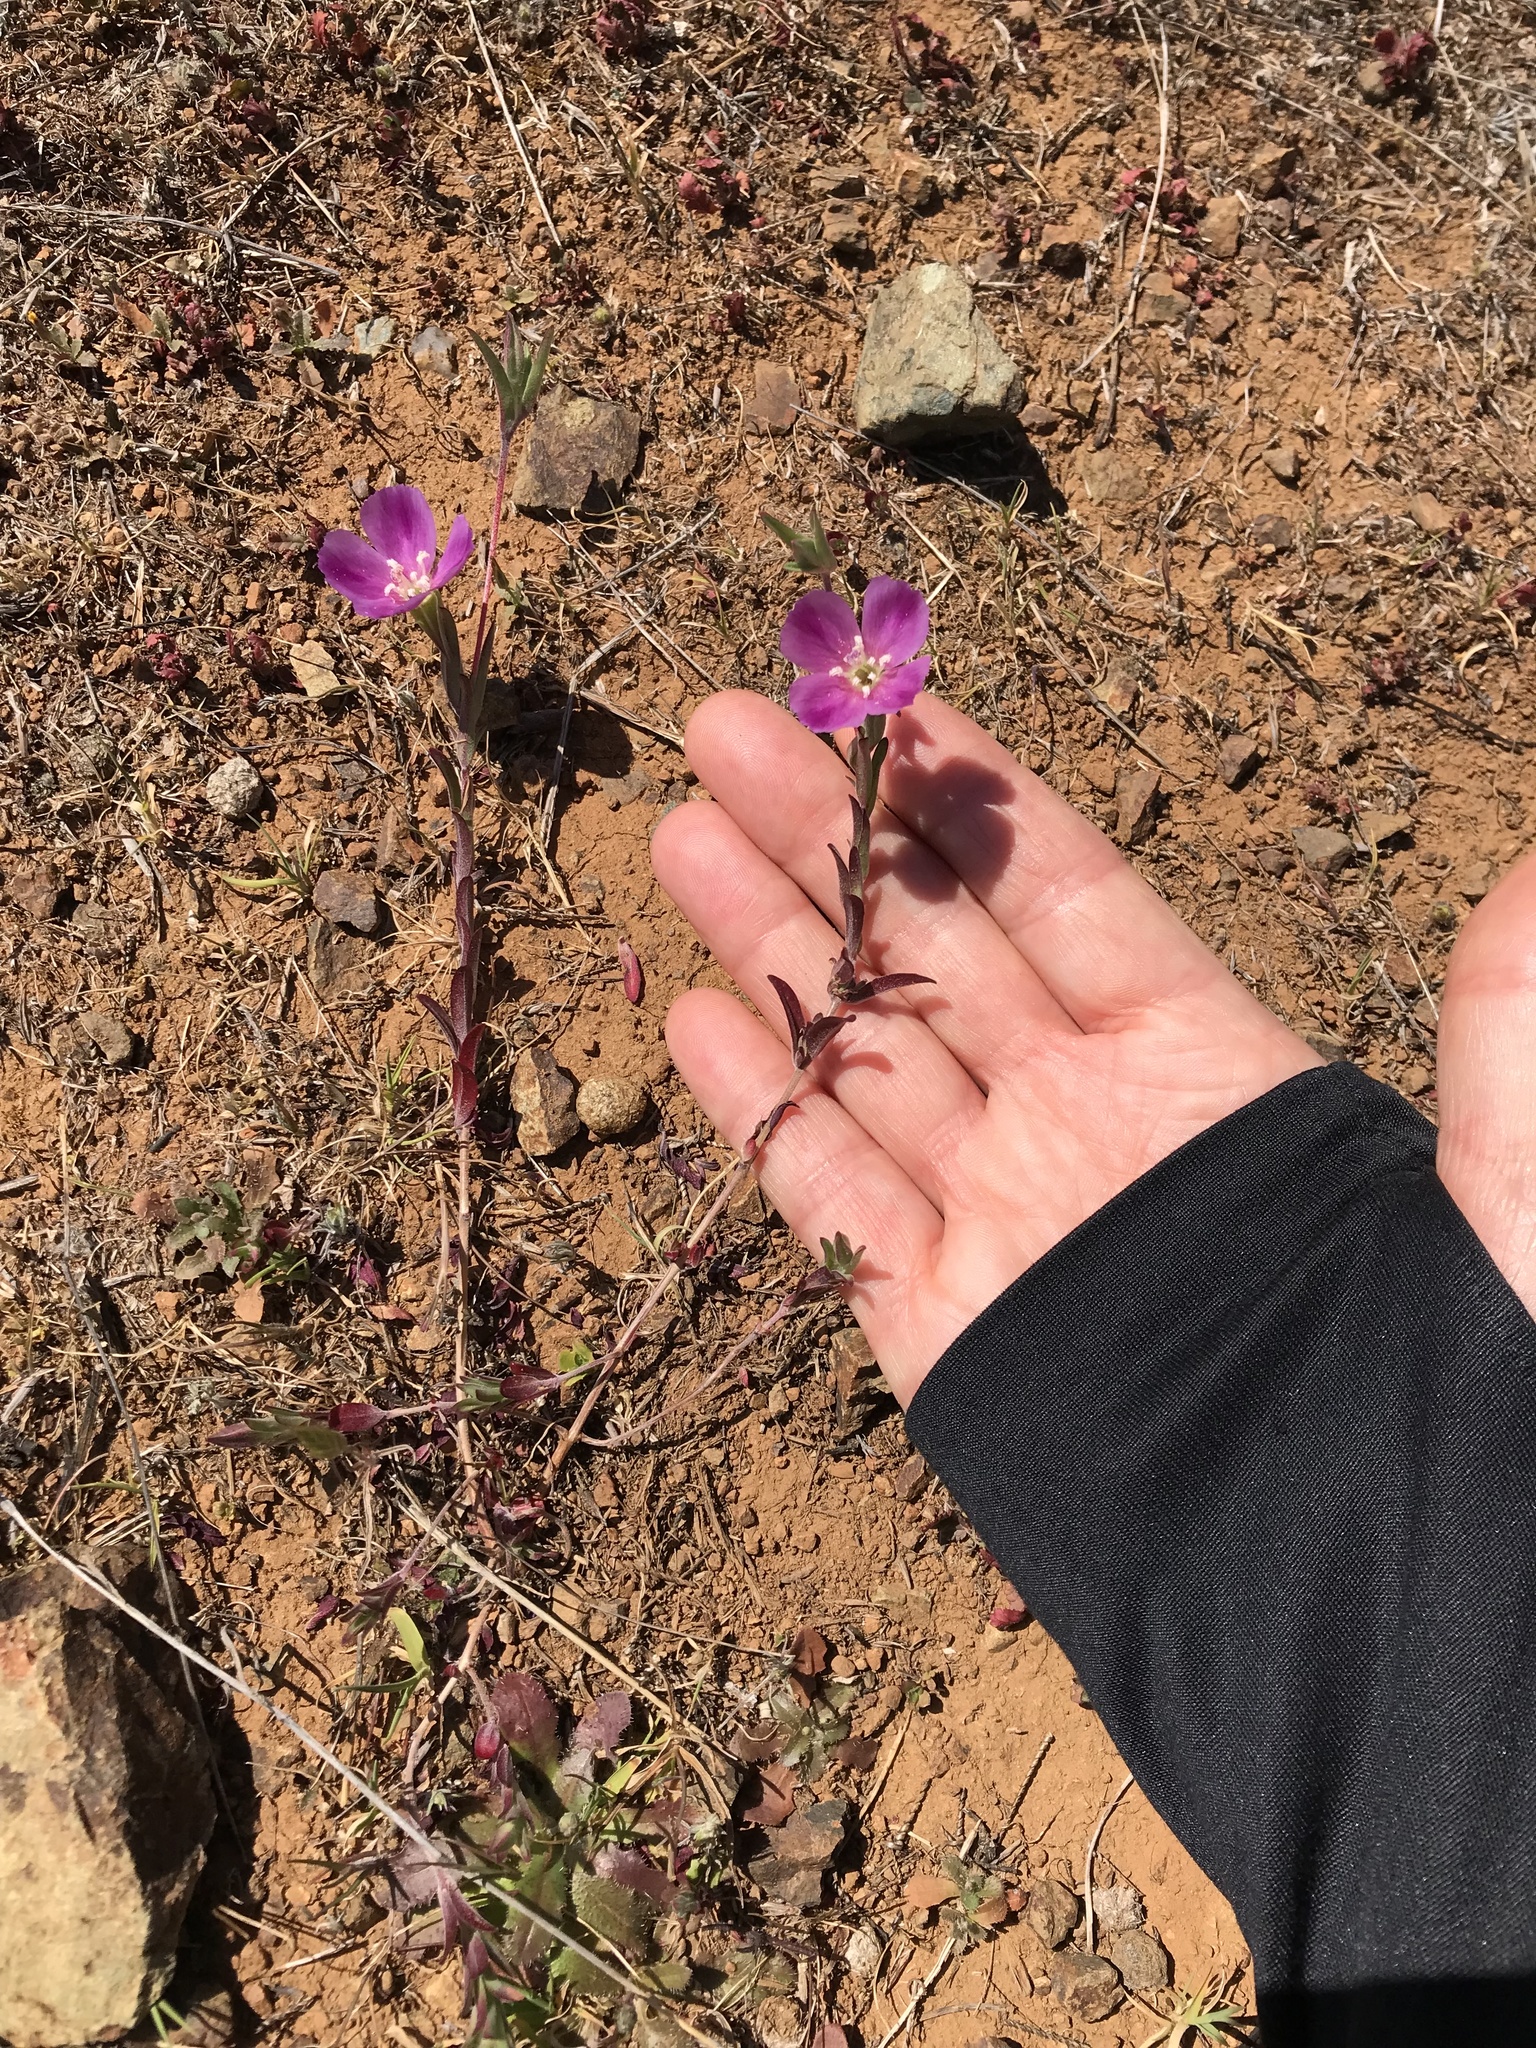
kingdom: Plantae
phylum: Tracheophyta
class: Magnoliopsida
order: Myrtales
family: Onagraceae
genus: Clarkia
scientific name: Clarkia purpurea
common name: Purple clarkia
